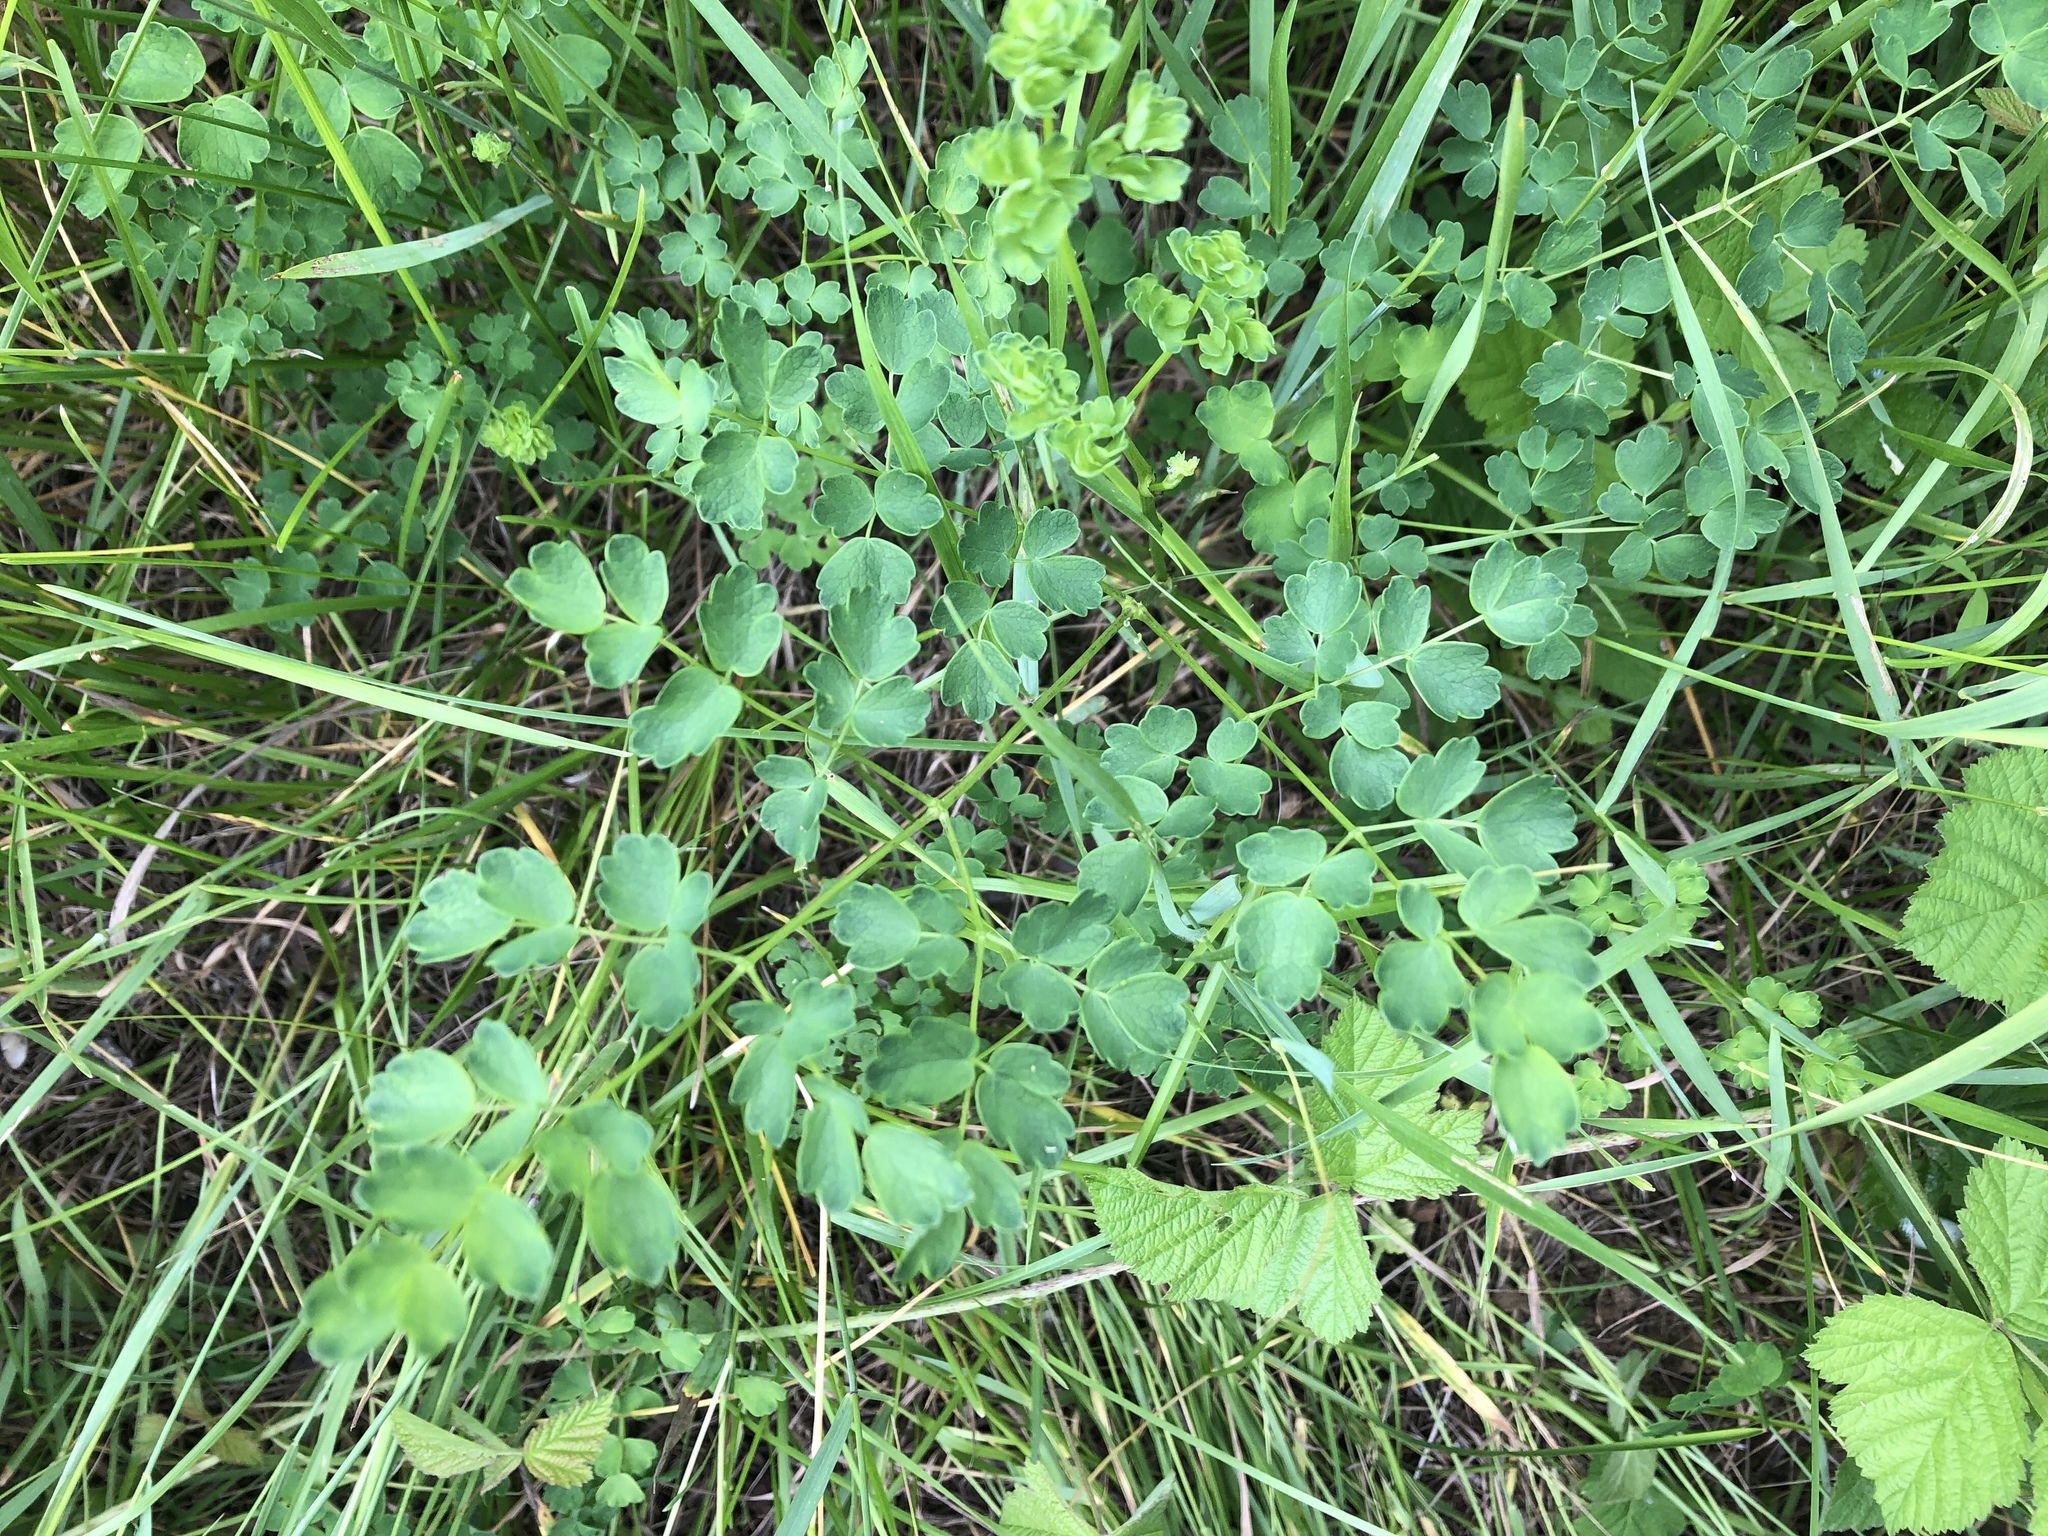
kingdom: Plantae
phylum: Tracheophyta
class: Magnoliopsida
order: Ranunculales
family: Ranunculaceae
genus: Thalictrum
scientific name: Thalictrum aquilegiifolium
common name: French meadow-rue
